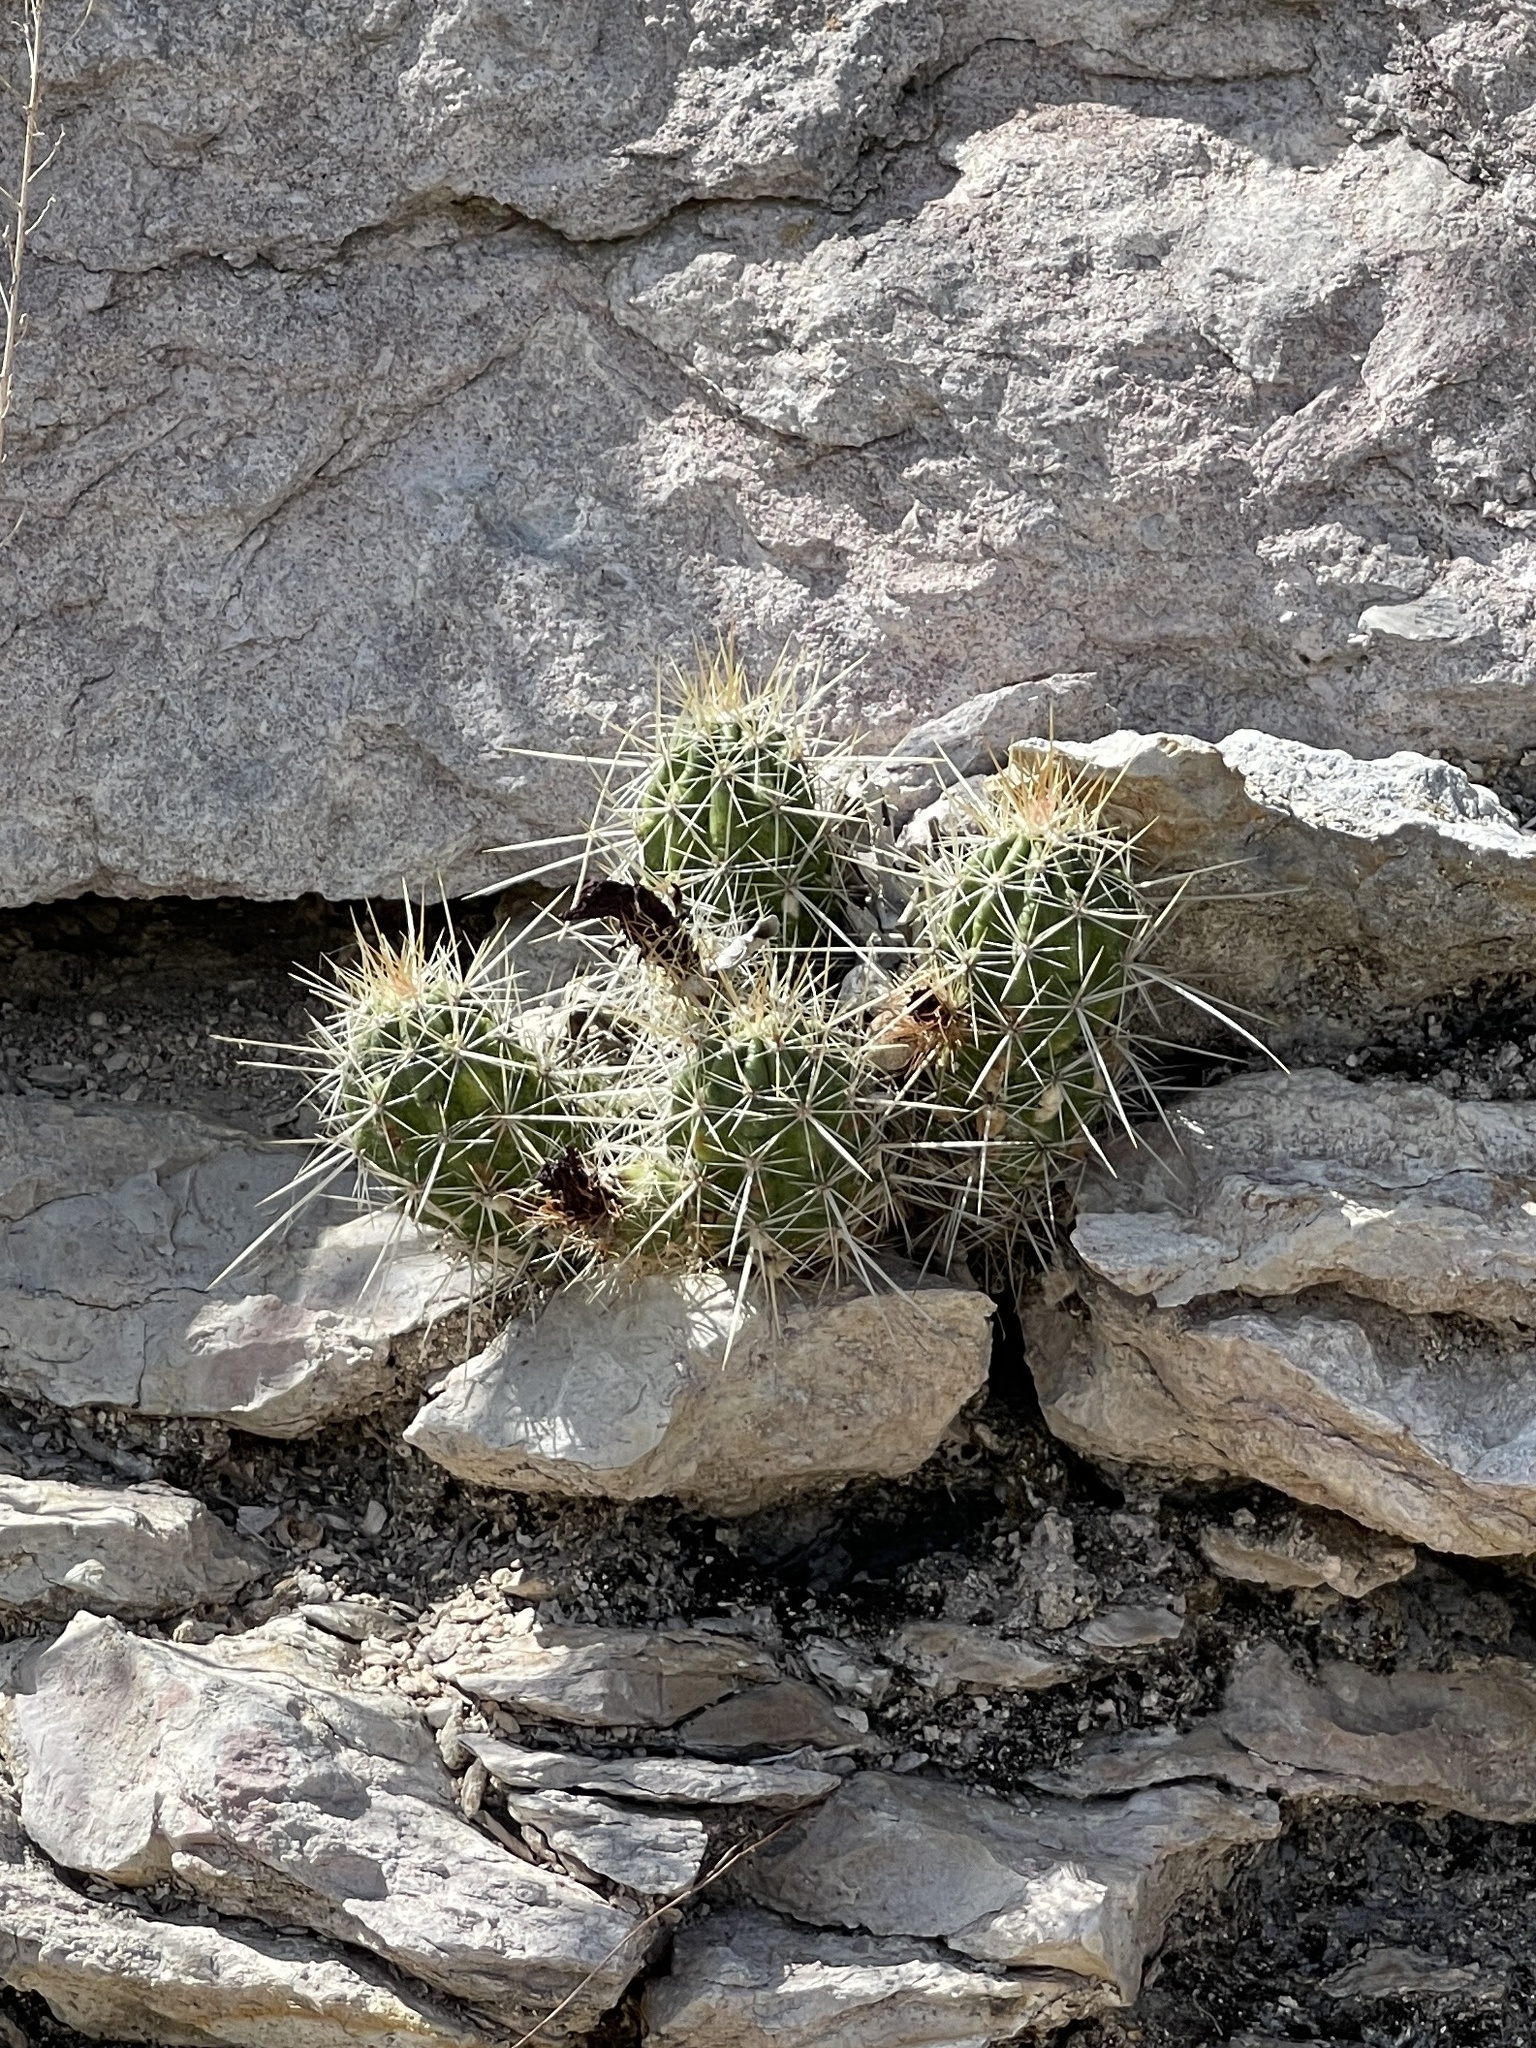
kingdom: Plantae
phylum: Tracheophyta
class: Magnoliopsida
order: Caryophyllales
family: Cactaceae
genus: Echinocereus
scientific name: Echinocereus enneacanthus
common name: Pitaya
